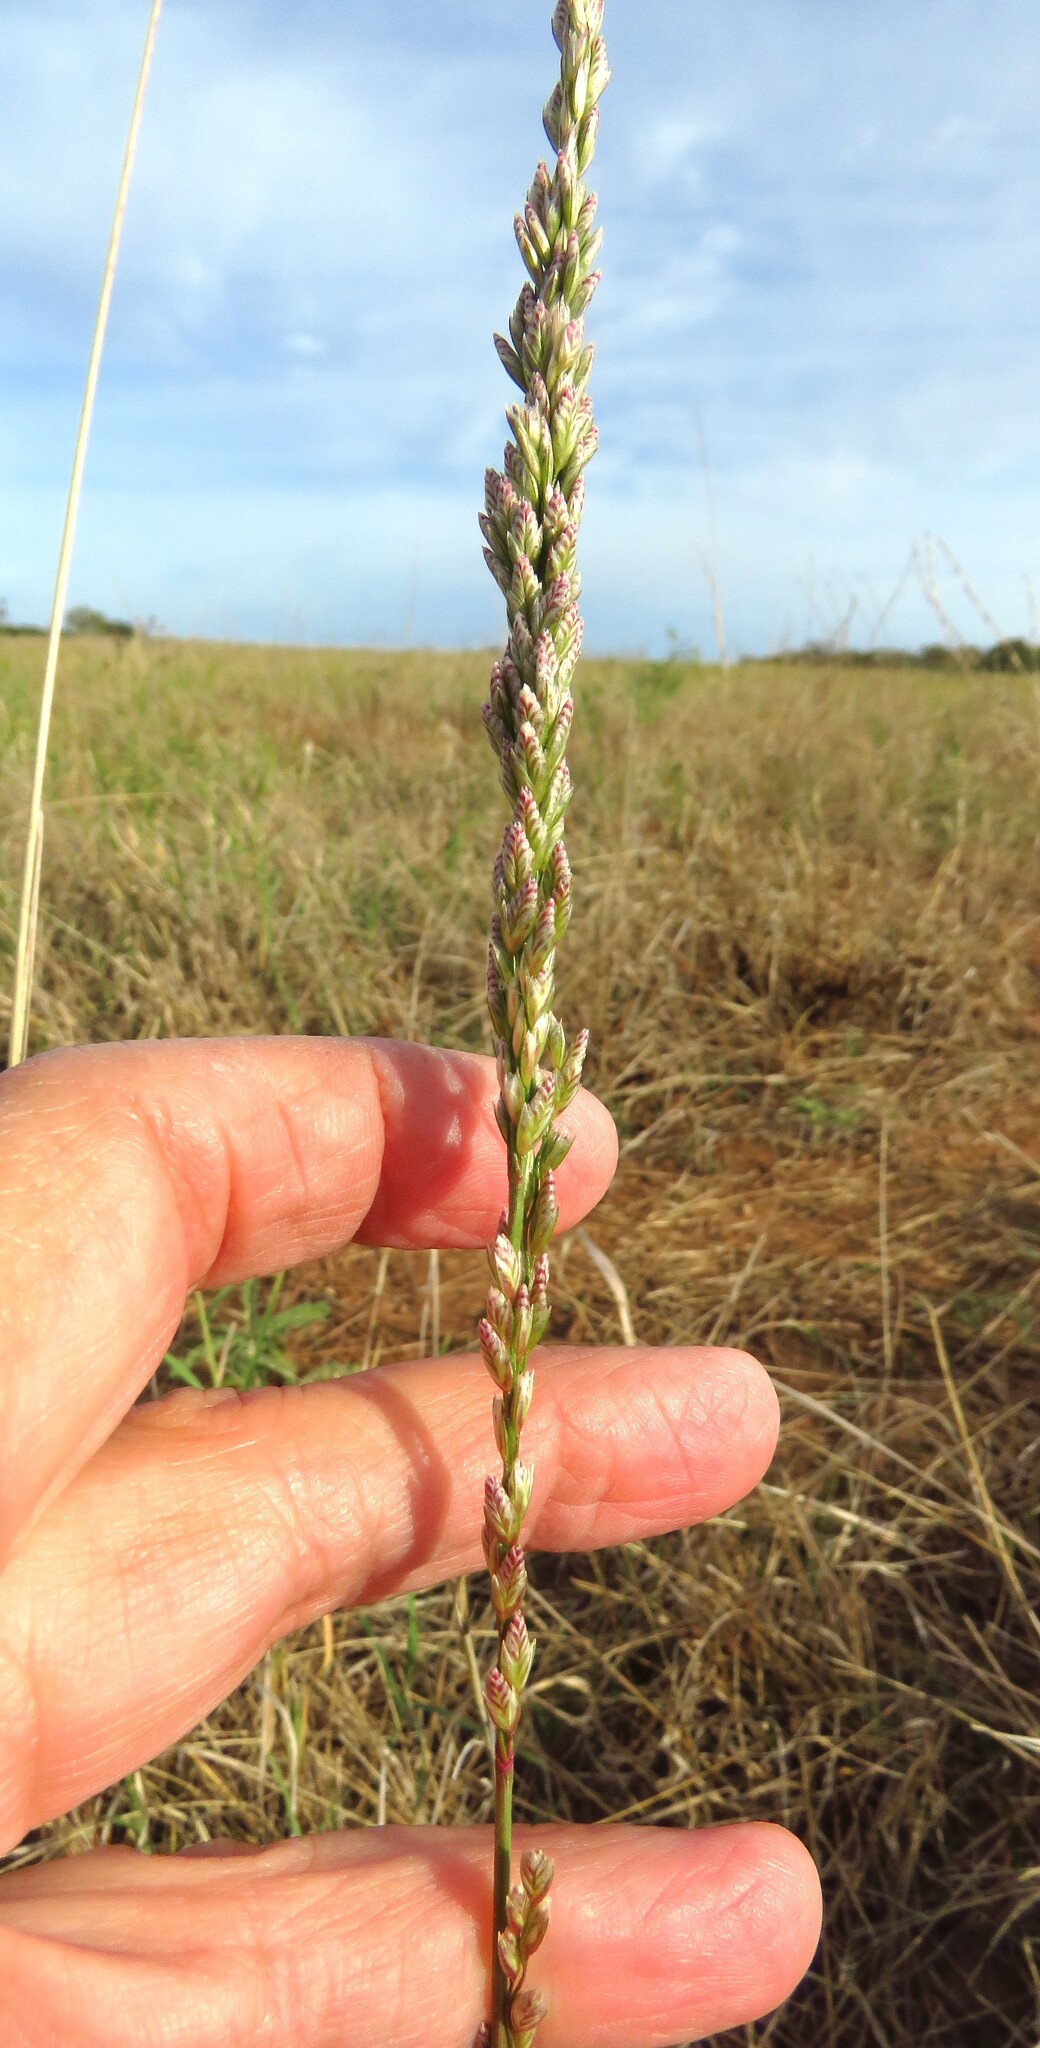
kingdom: Plantae
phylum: Tracheophyta
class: Liliopsida
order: Poales
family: Poaceae
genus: Tridens
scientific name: Tridens albescens
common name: White tridens
